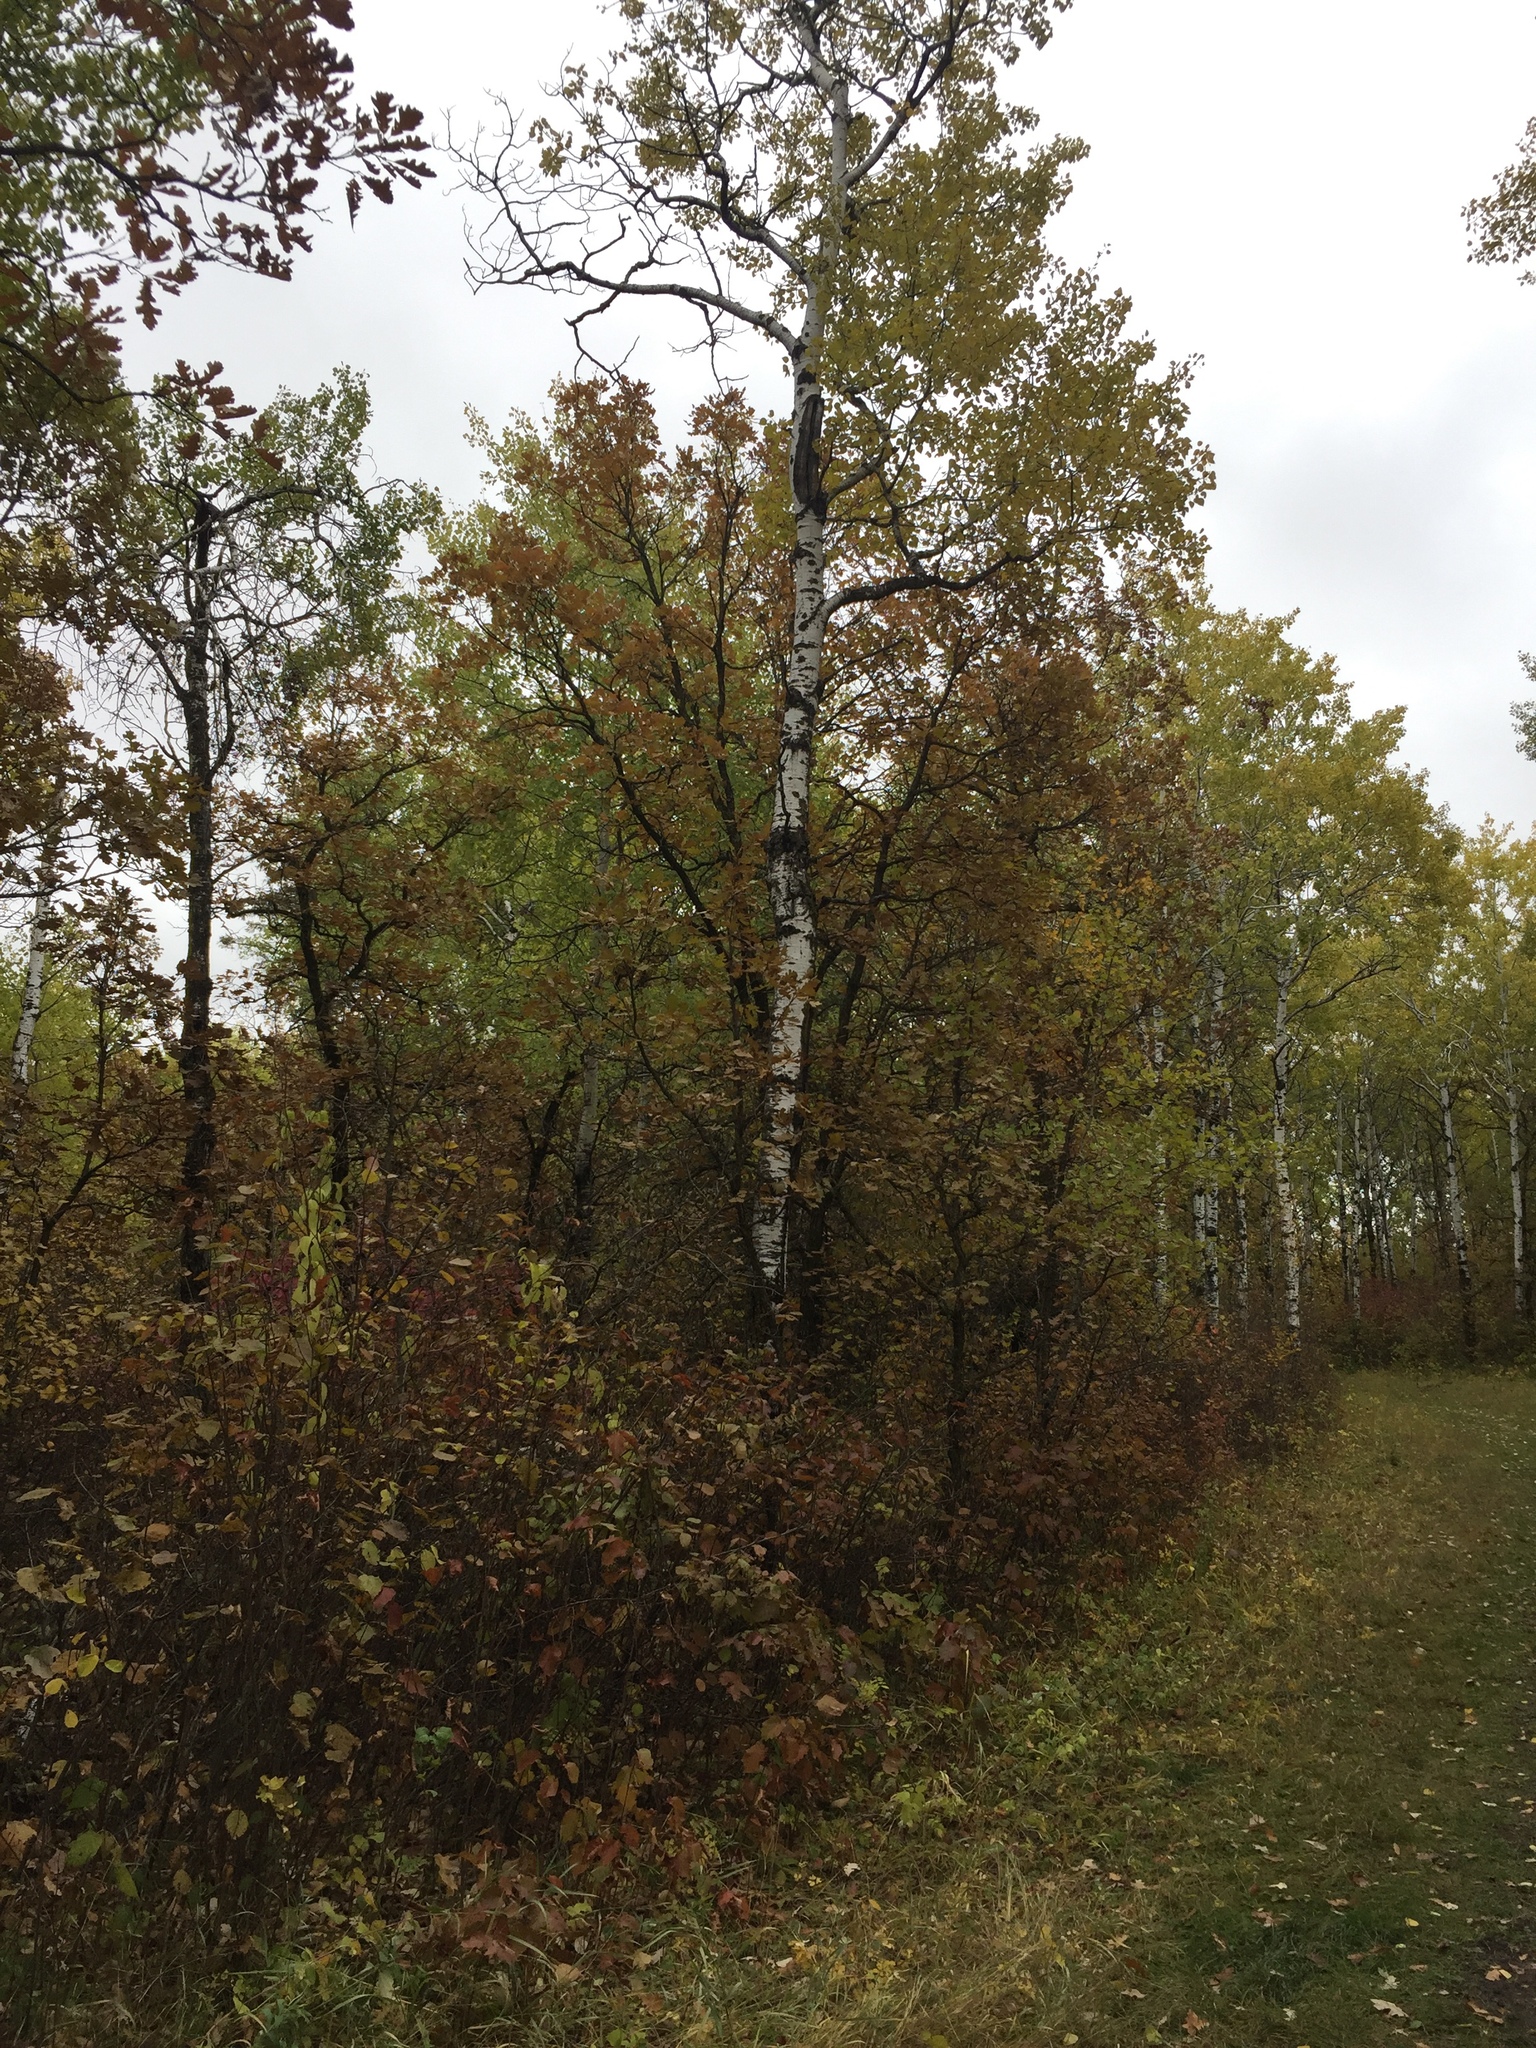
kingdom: Plantae
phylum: Tracheophyta
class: Magnoliopsida
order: Malpighiales
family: Salicaceae
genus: Populus
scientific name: Populus tremuloides
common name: Quaking aspen
